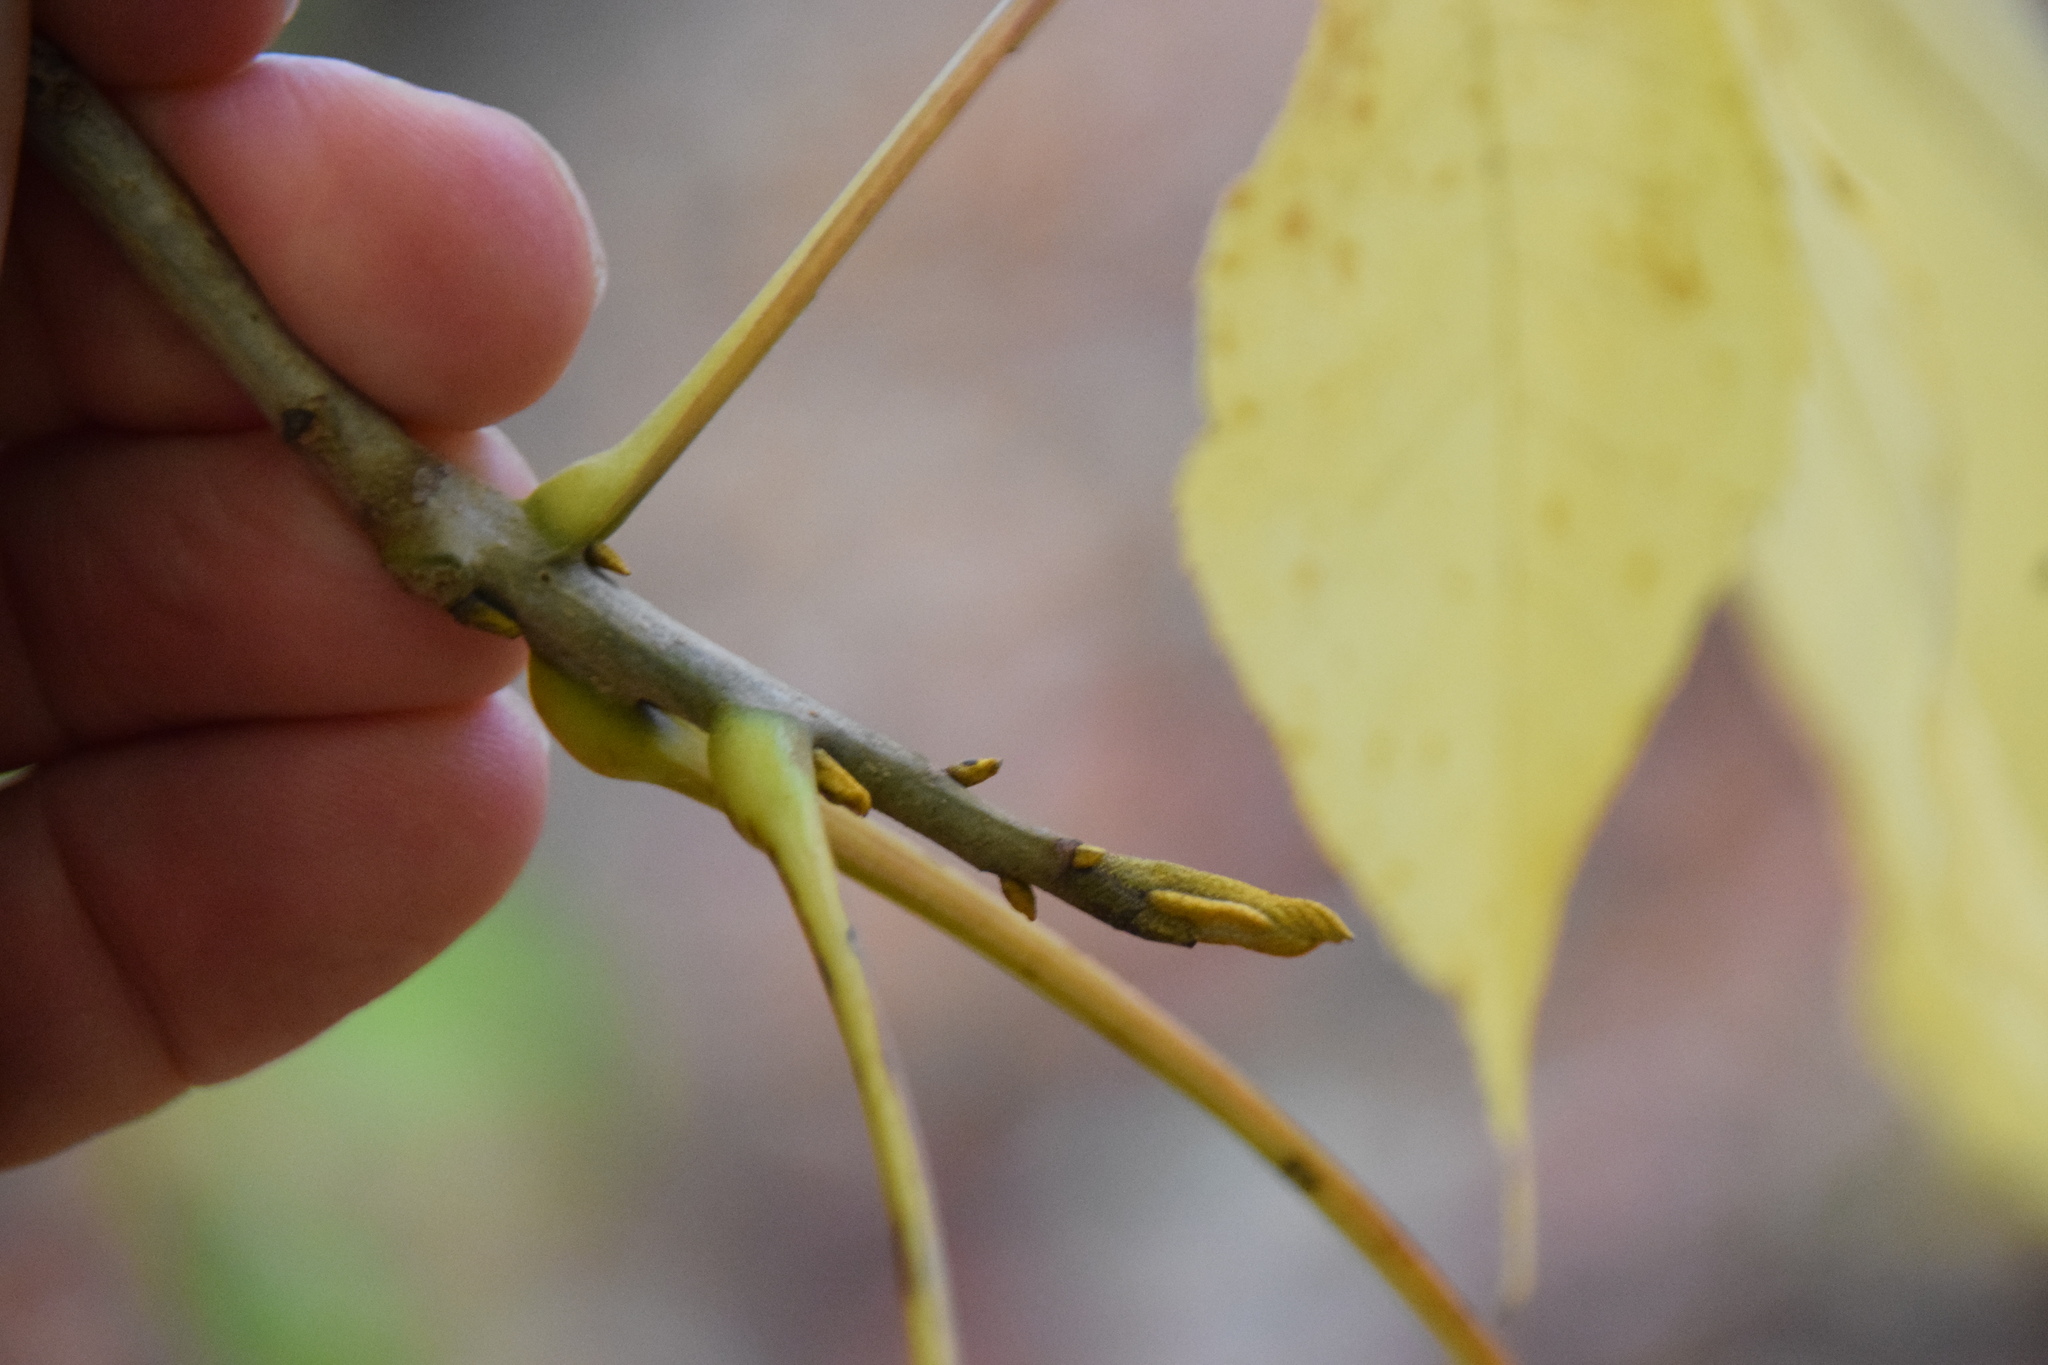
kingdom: Plantae
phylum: Tracheophyta
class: Magnoliopsida
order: Fagales
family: Juglandaceae
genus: Carya
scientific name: Carya cordiformis
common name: Bitternut hickory
